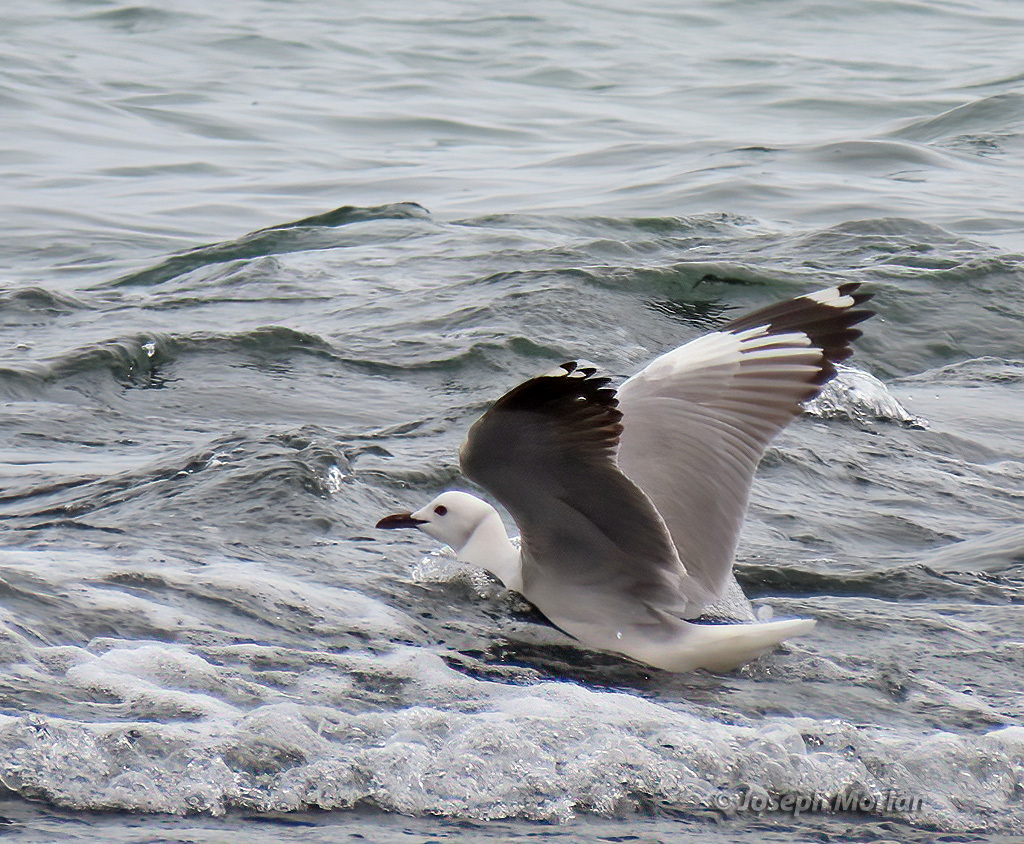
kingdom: Animalia
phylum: Chordata
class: Aves
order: Charadriiformes
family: Laridae
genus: Chroicocephalus
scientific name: Chroicocephalus hartlaubii
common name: Hartlaub's gull
